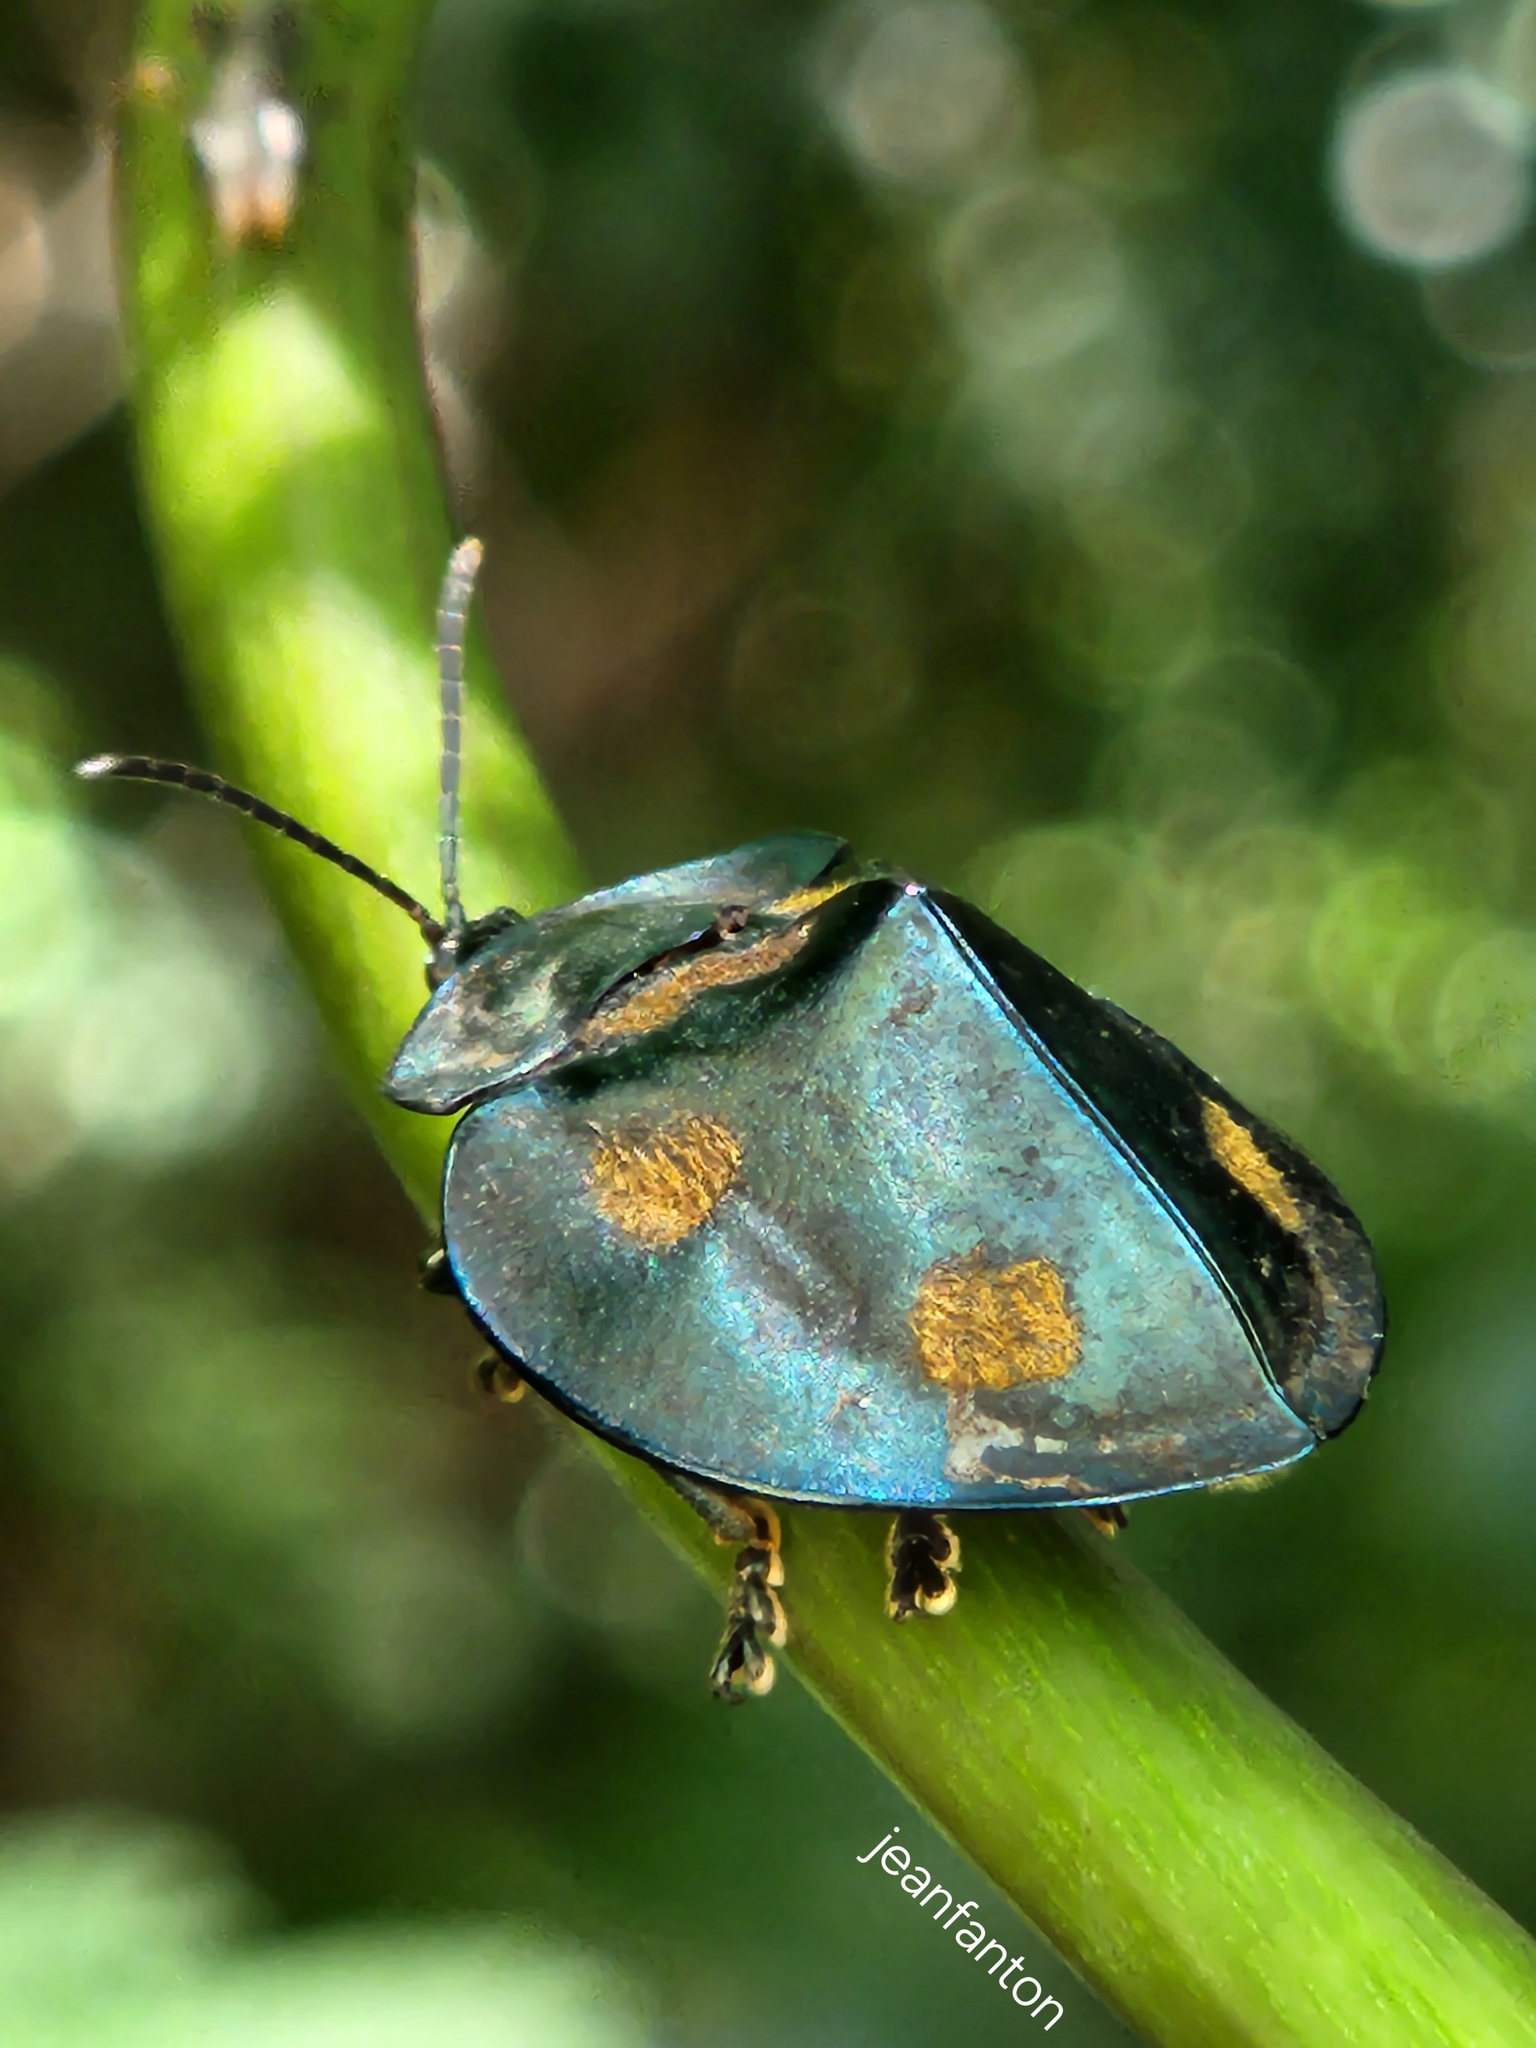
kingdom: Animalia
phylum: Arthropoda
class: Insecta
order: Coleoptera
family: Chrysomelidae
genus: Stolas
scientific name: Stolas chalybaea
